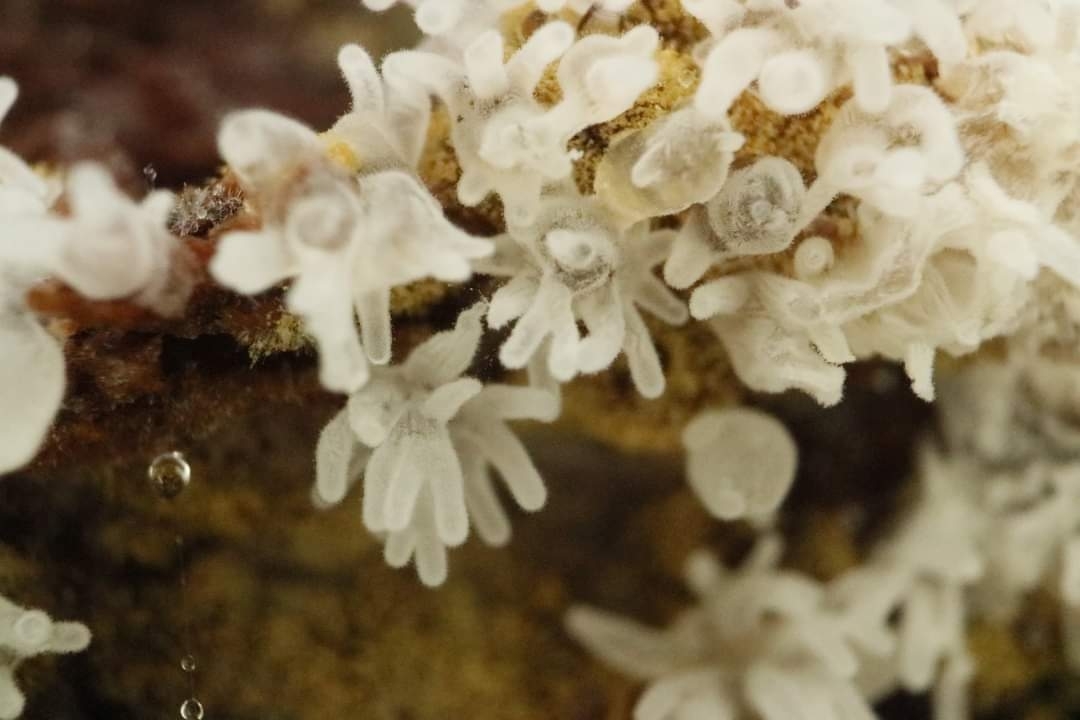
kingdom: Protozoa
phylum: Mycetozoa
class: Protosteliomycetes
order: Ceratiomyxales
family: Ceratiomyxaceae
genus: Ceratiomyxa
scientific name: Ceratiomyxa fruticulosa
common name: Honeycomb coral slime mold
